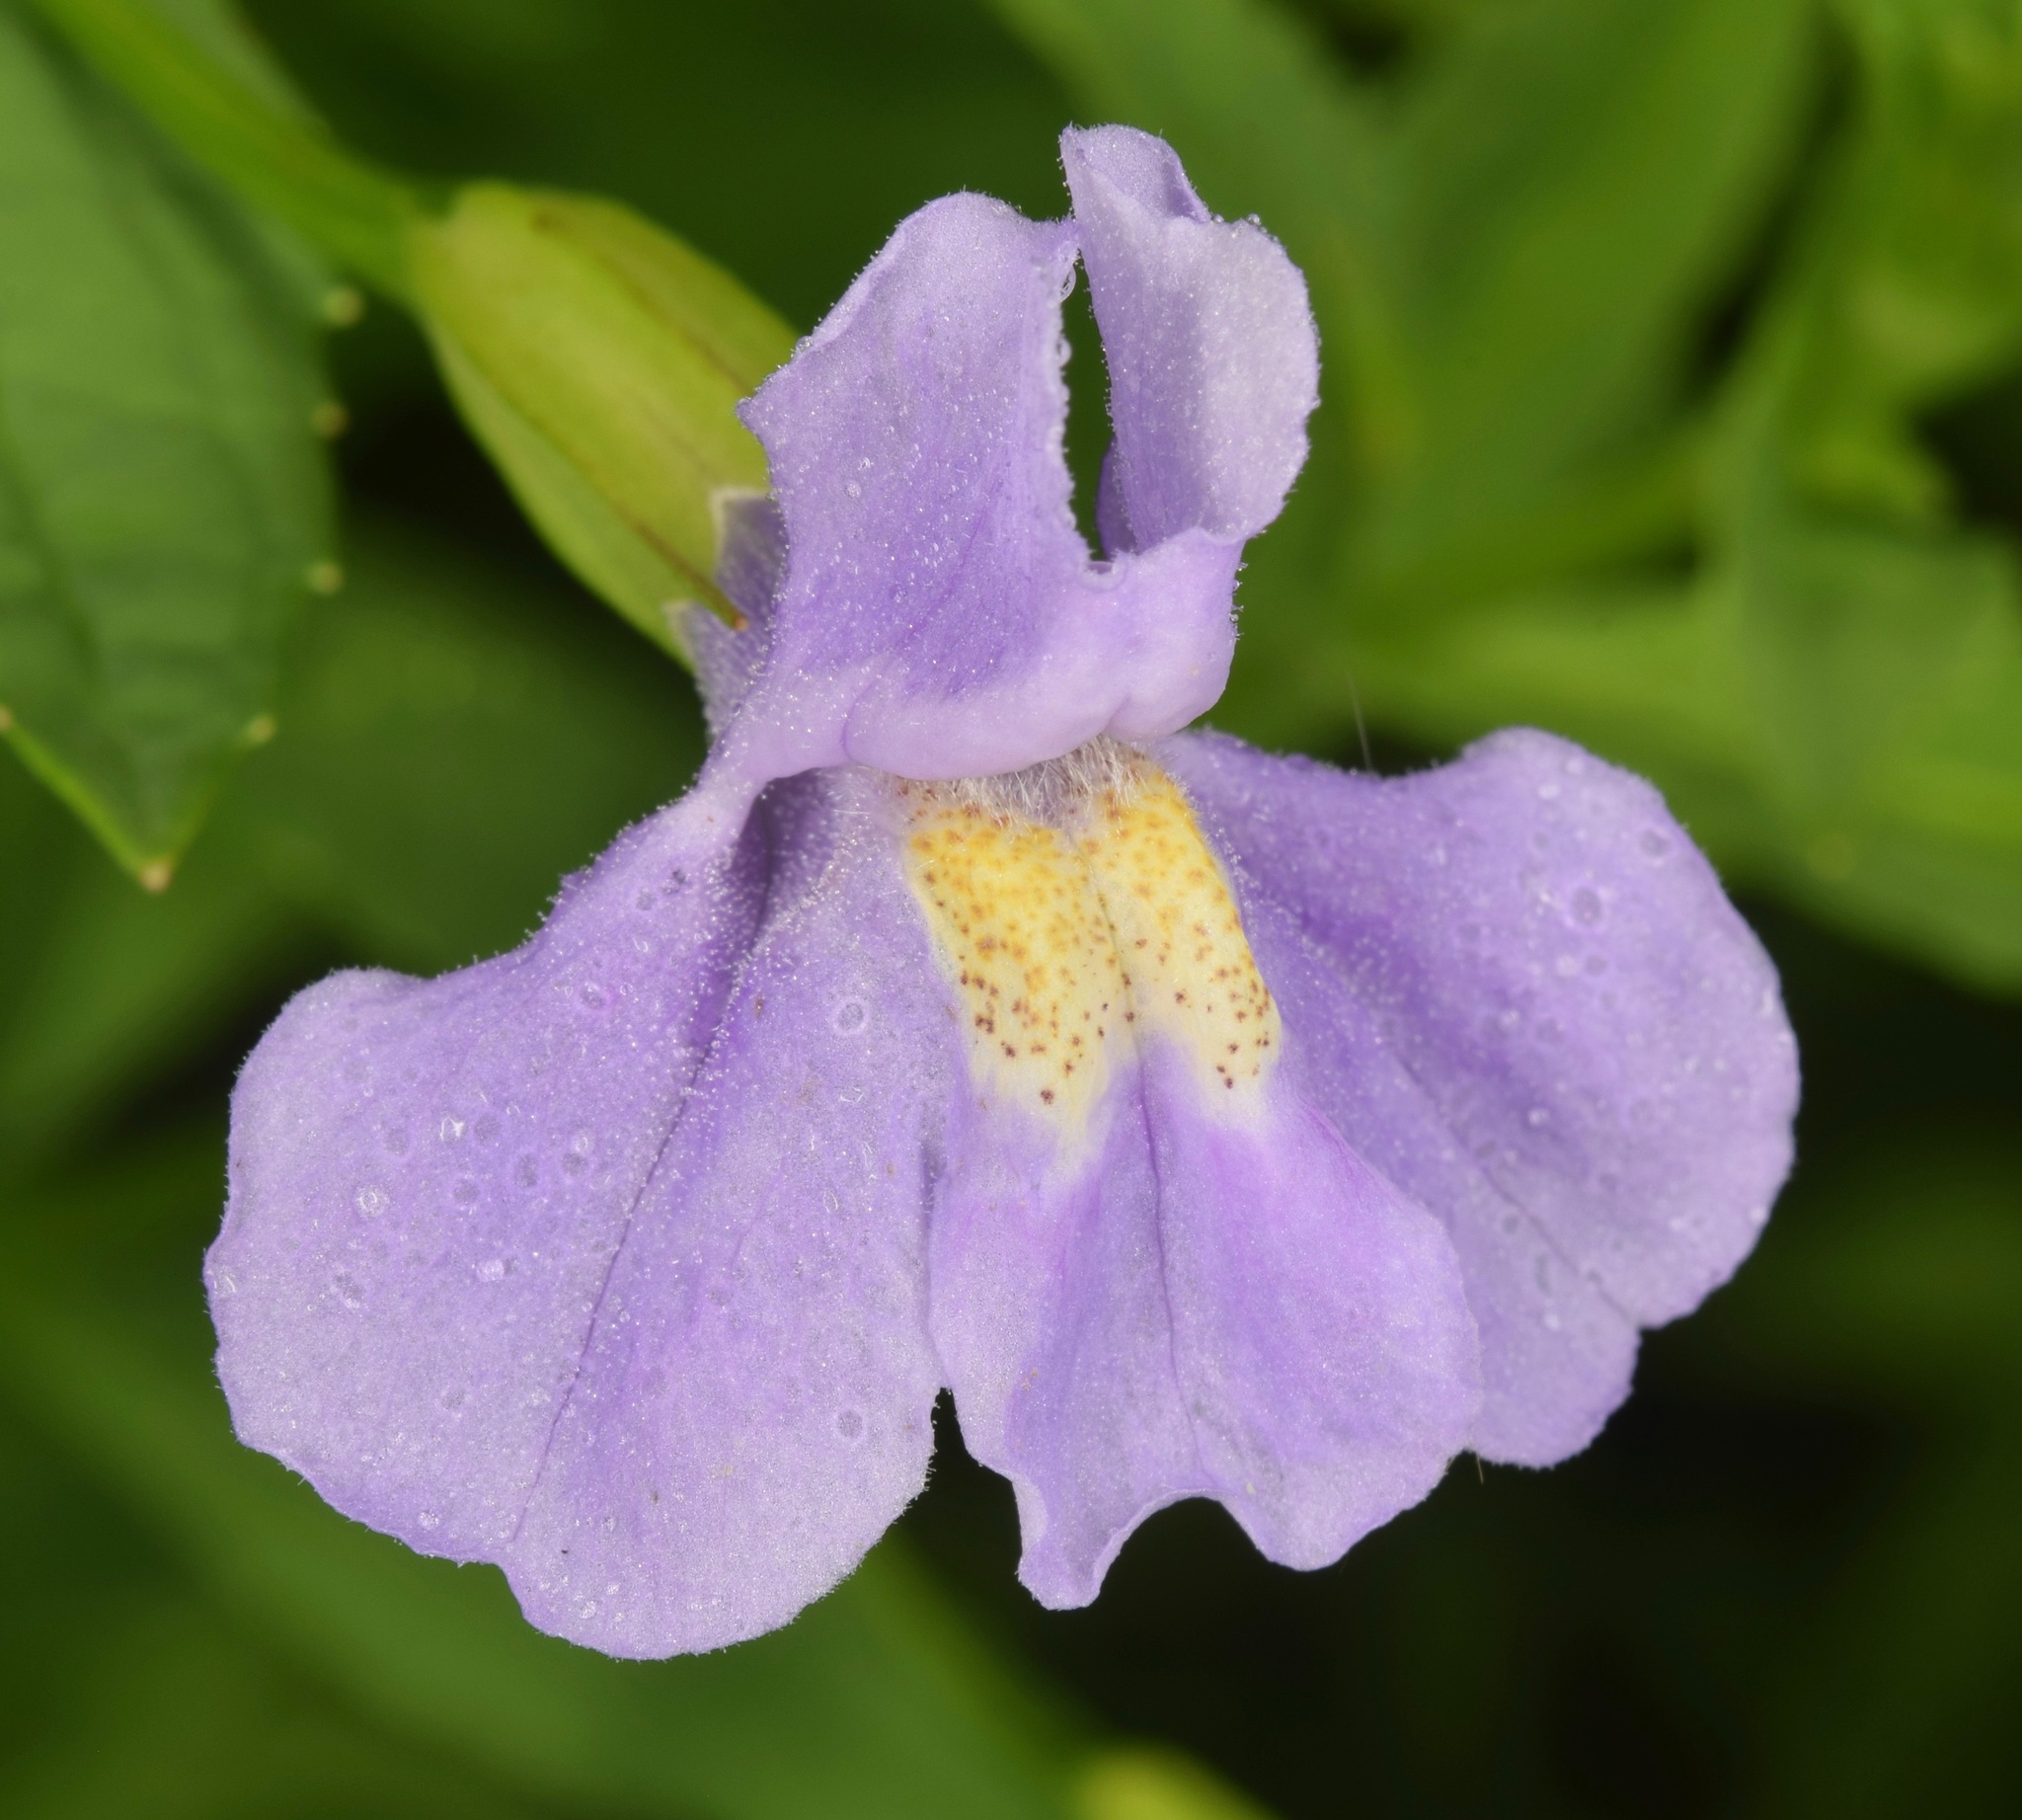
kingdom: Plantae
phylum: Tracheophyta
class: Magnoliopsida
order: Lamiales
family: Phrymaceae
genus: Mimulus
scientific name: Mimulus ringens
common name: Allegheny monkeyflower
